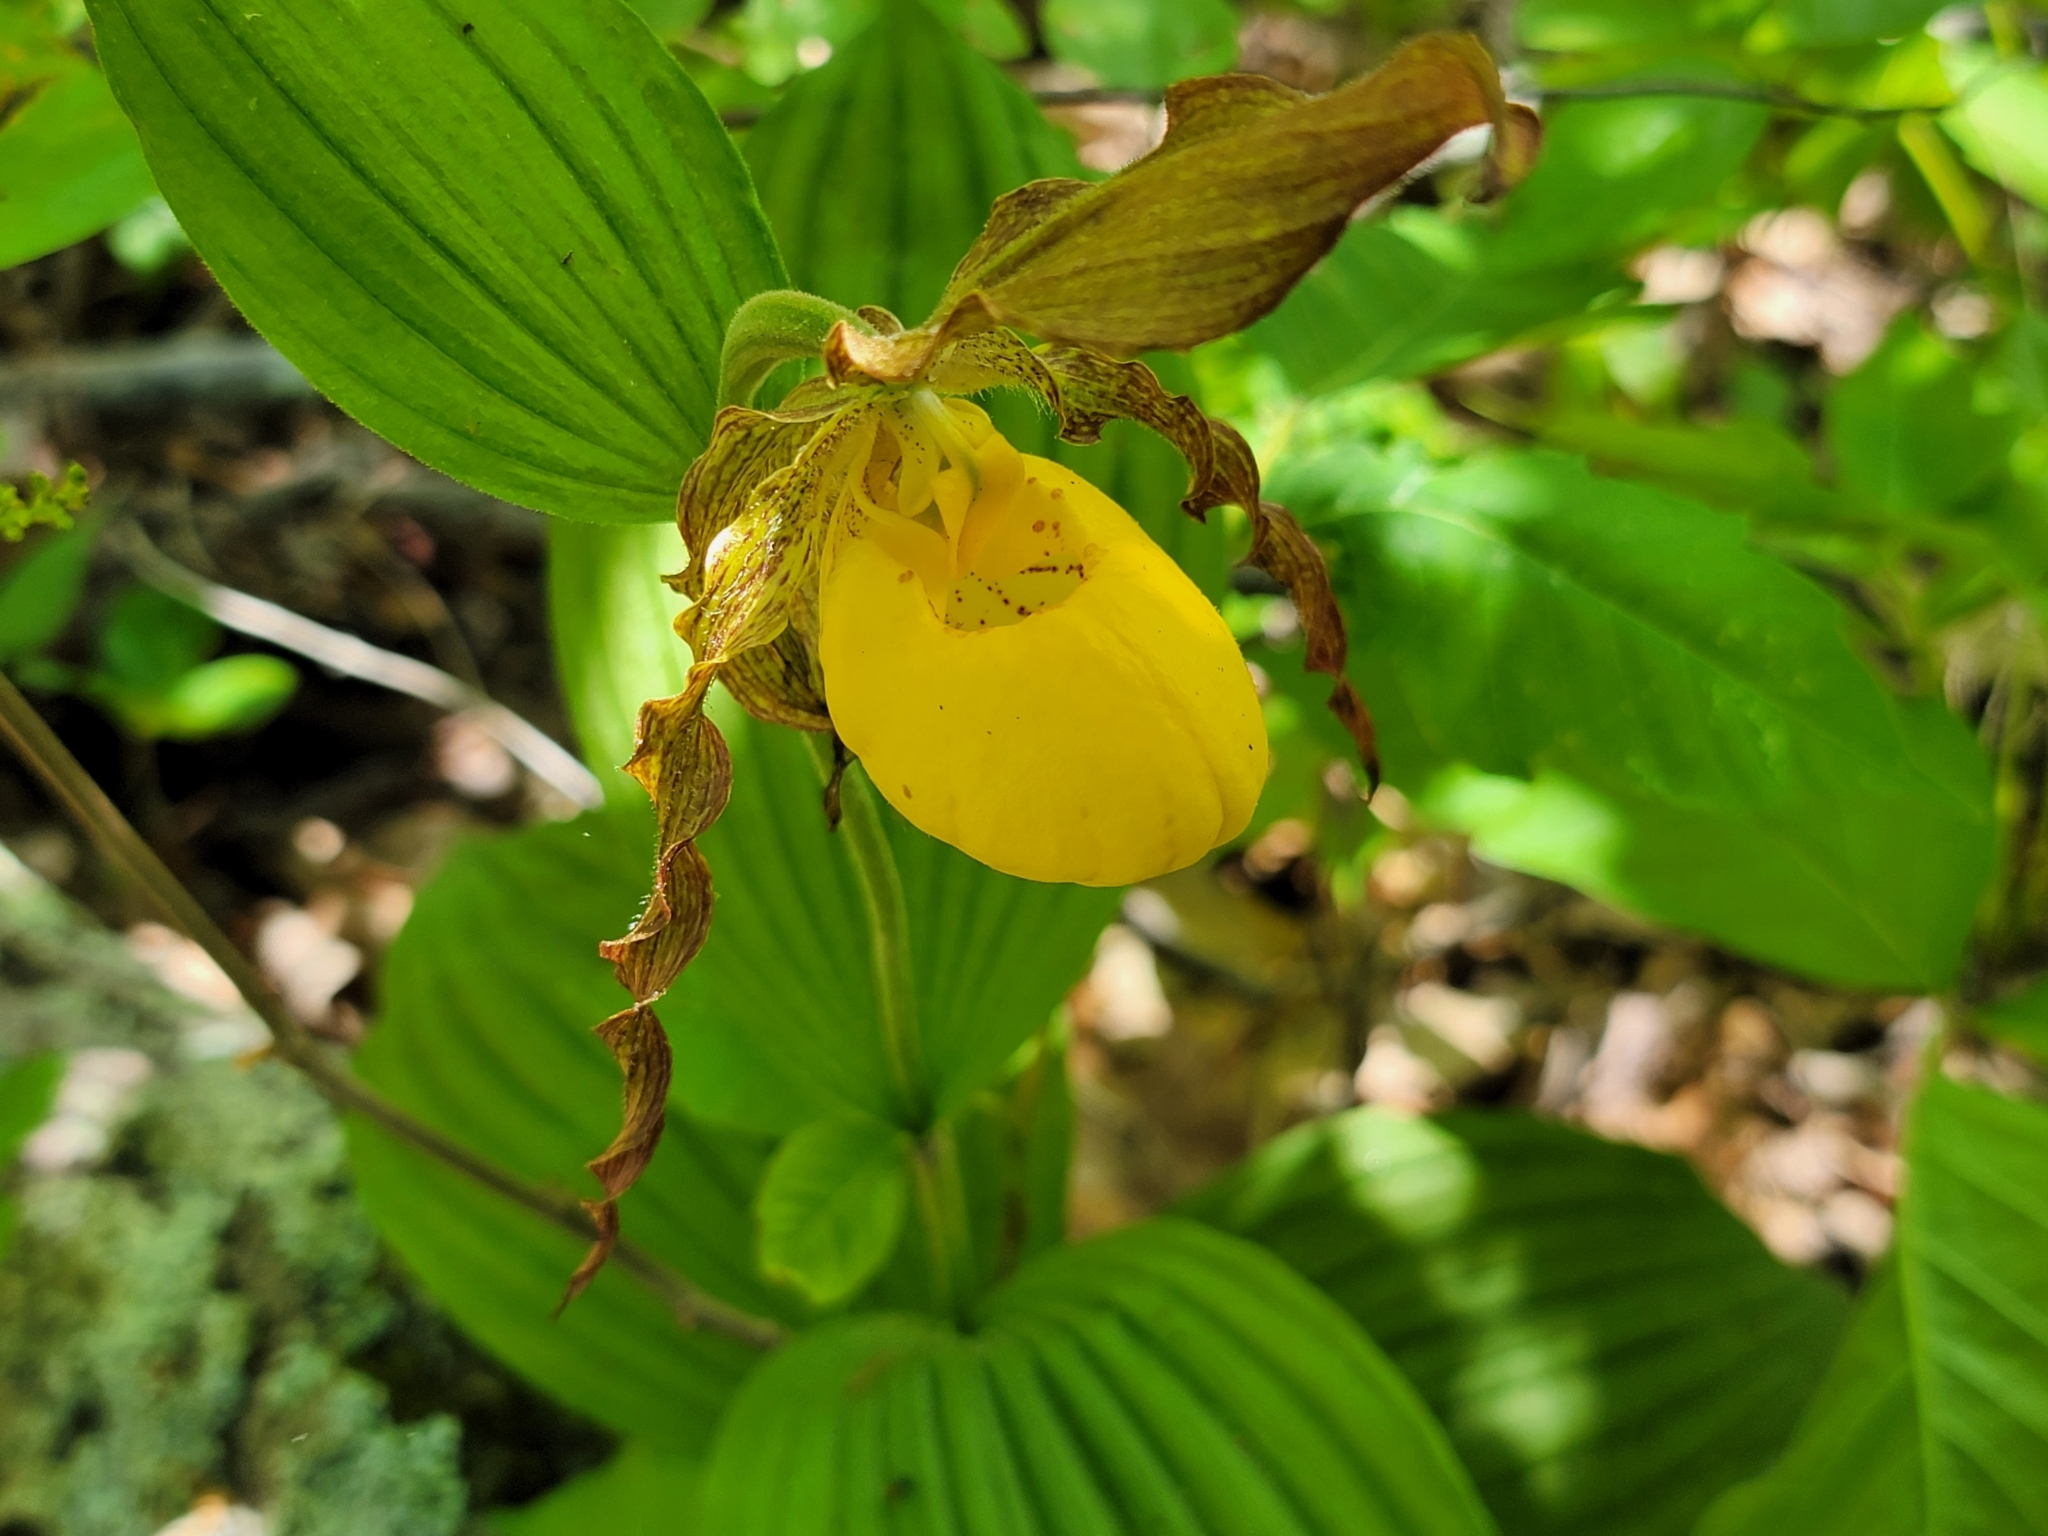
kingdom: Plantae
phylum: Tracheophyta
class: Liliopsida
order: Asparagales
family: Orchidaceae
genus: Cypripedium
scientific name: Cypripedium parviflorum
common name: American yellow lady's-slipper
